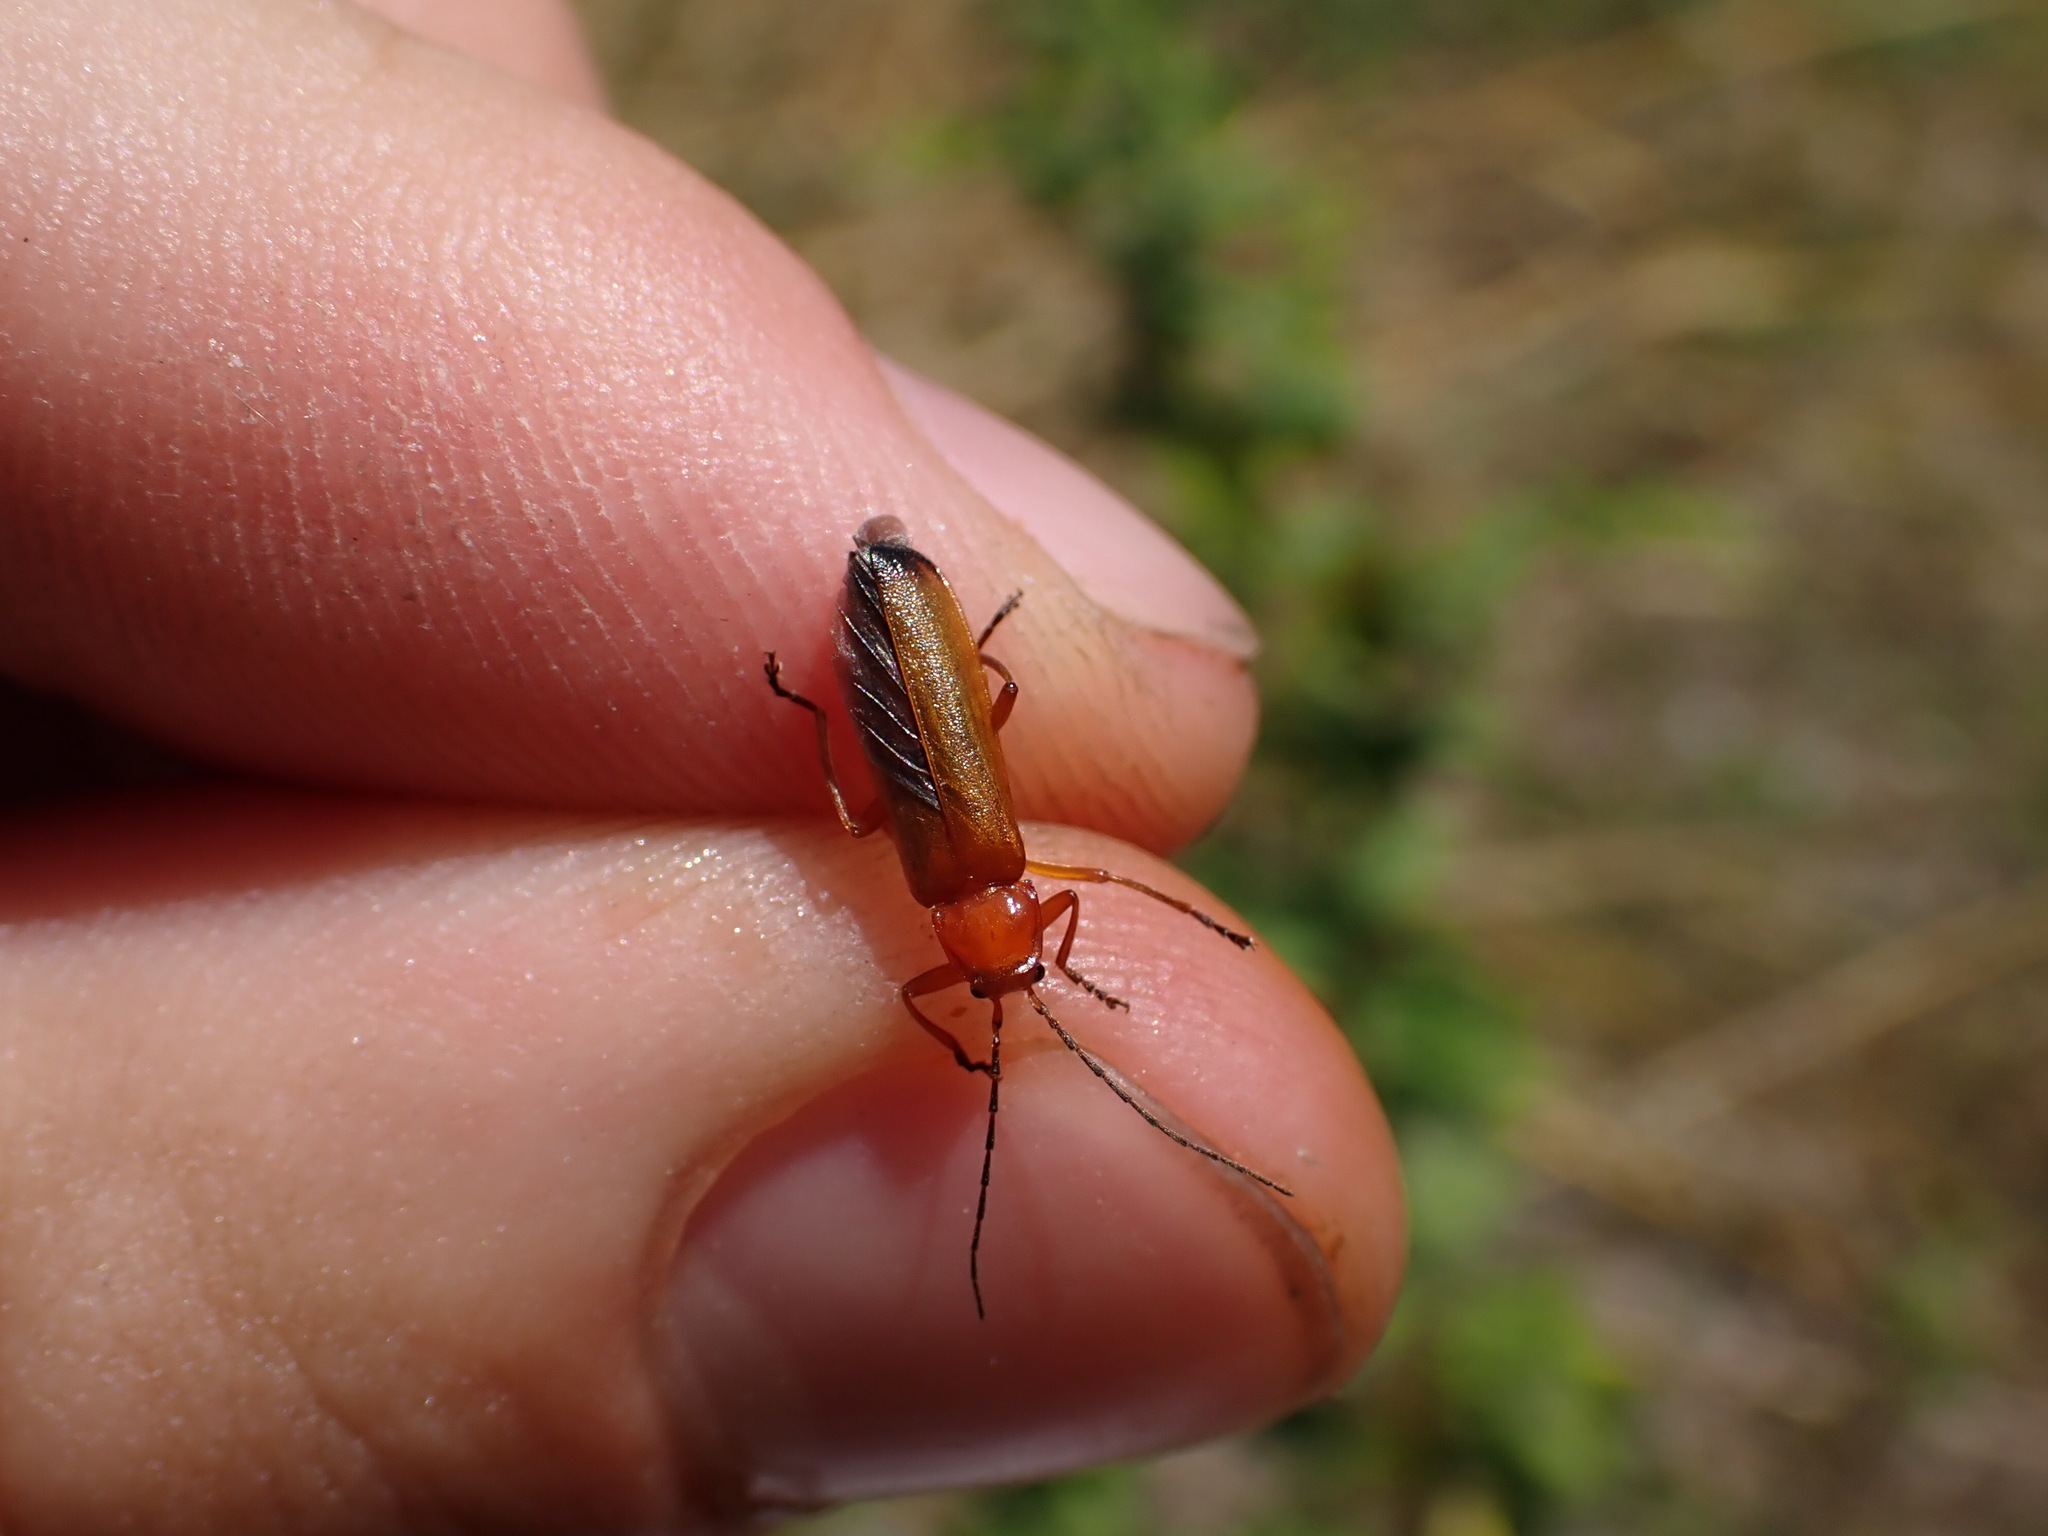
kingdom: Animalia
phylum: Arthropoda
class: Insecta
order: Coleoptera
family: Cantharidae
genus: Rhagonycha
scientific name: Rhagonycha fulva
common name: Common red soldier beetle
